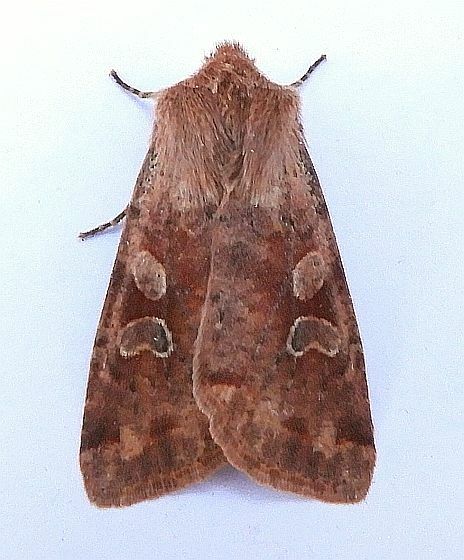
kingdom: Animalia
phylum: Arthropoda
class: Insecta
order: Lepidoptera
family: Noctuidae
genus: Orthosia
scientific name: Orthosia rubescens
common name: Ruby quaker
